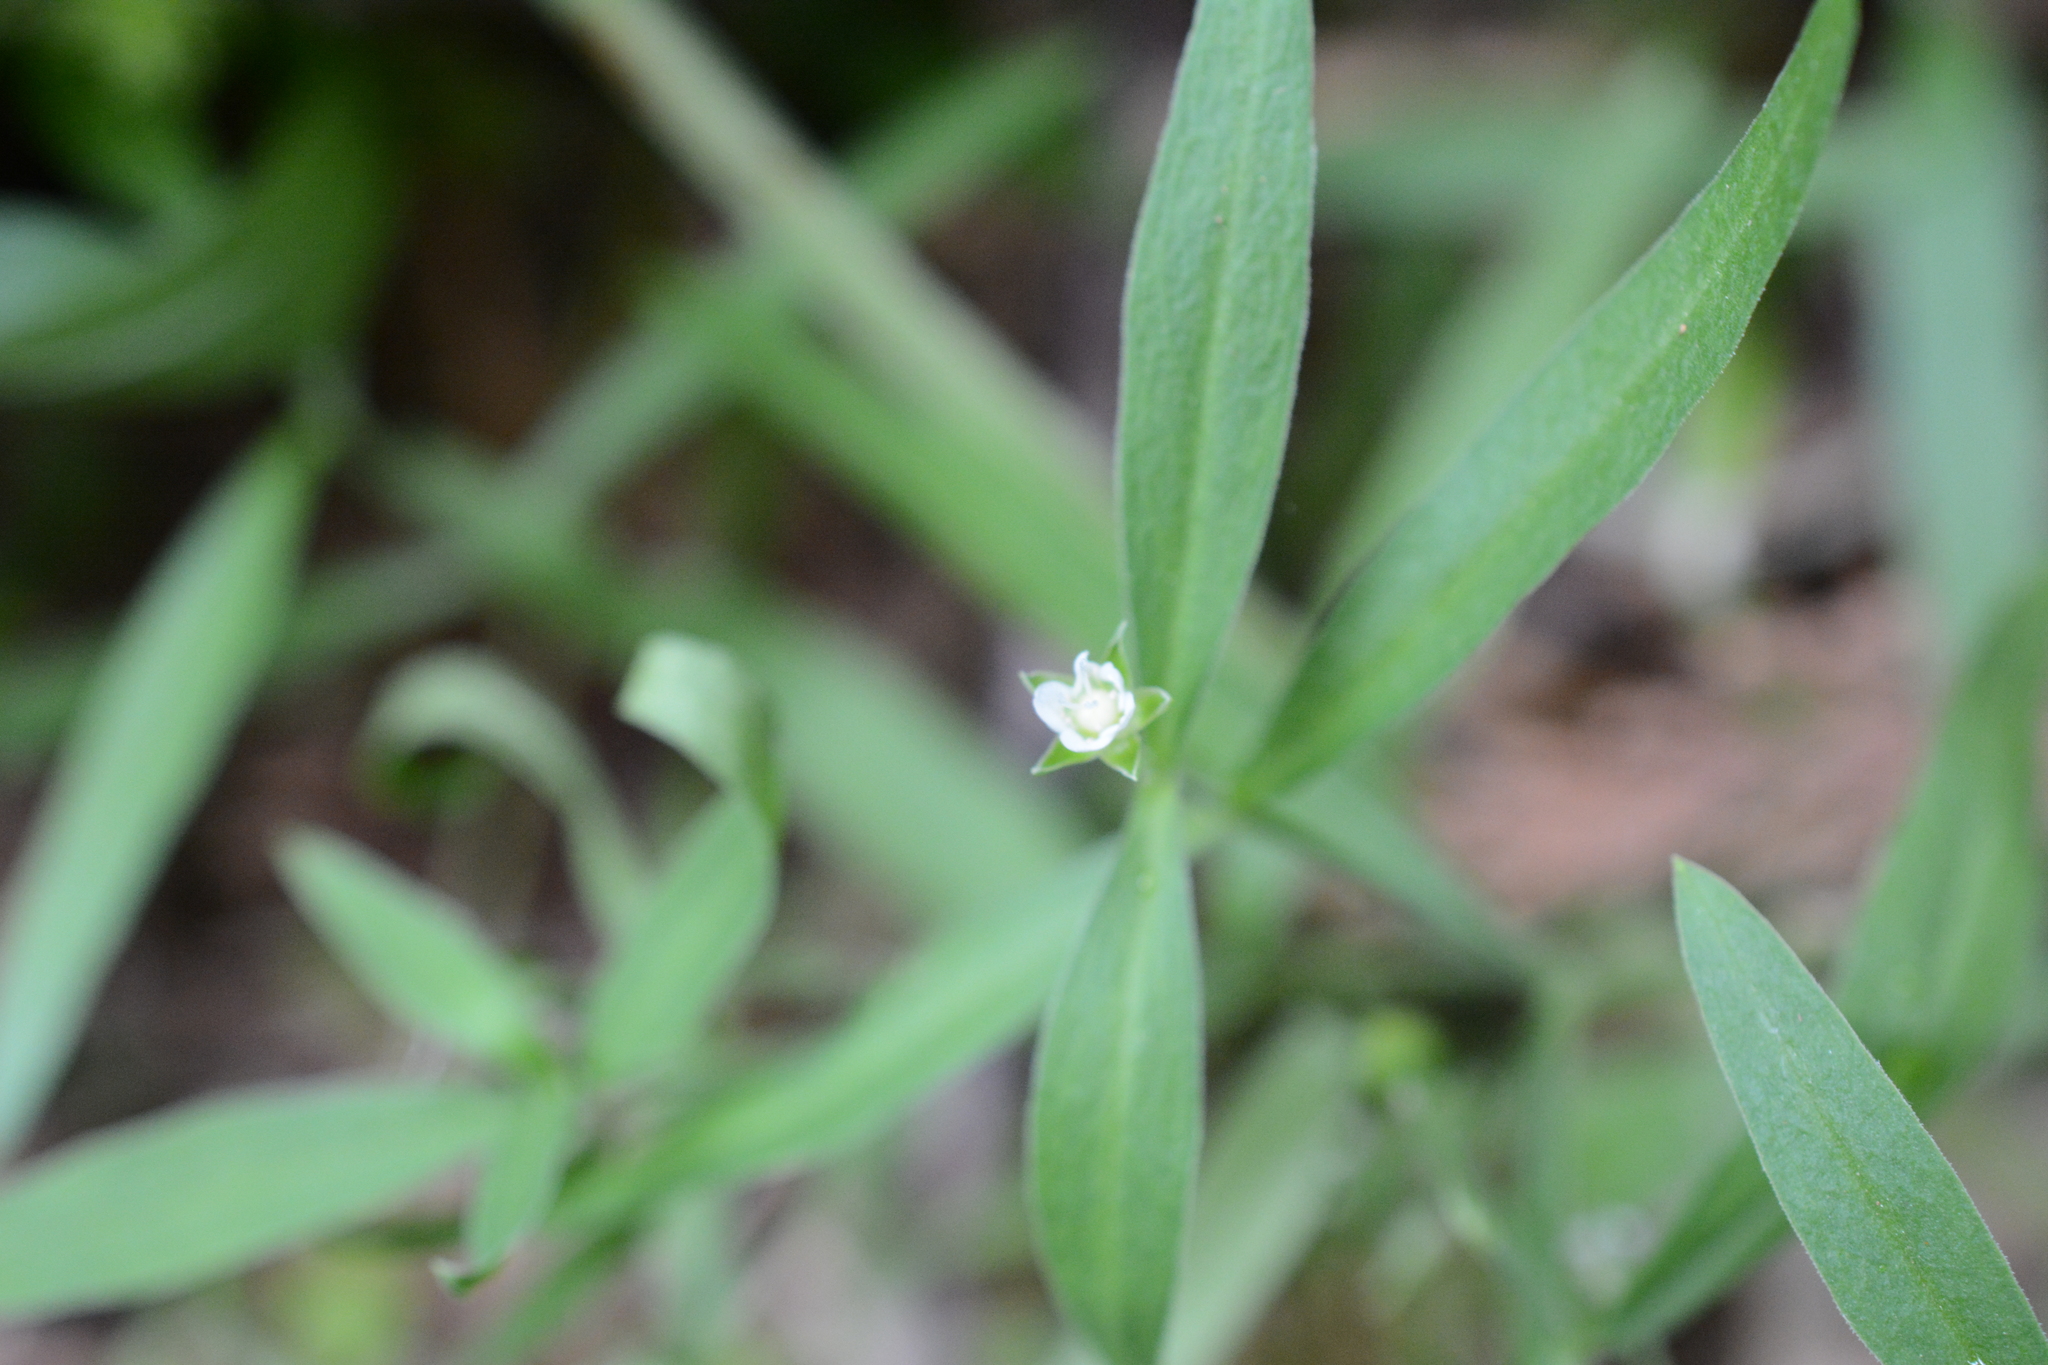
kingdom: Plantae
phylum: Tracheophyta
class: Magnoliopsida
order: Caryophyllales
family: Caryophyllaceae
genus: Moehringia
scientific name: Moehringia macrophylla
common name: Big-leaf sandwort
